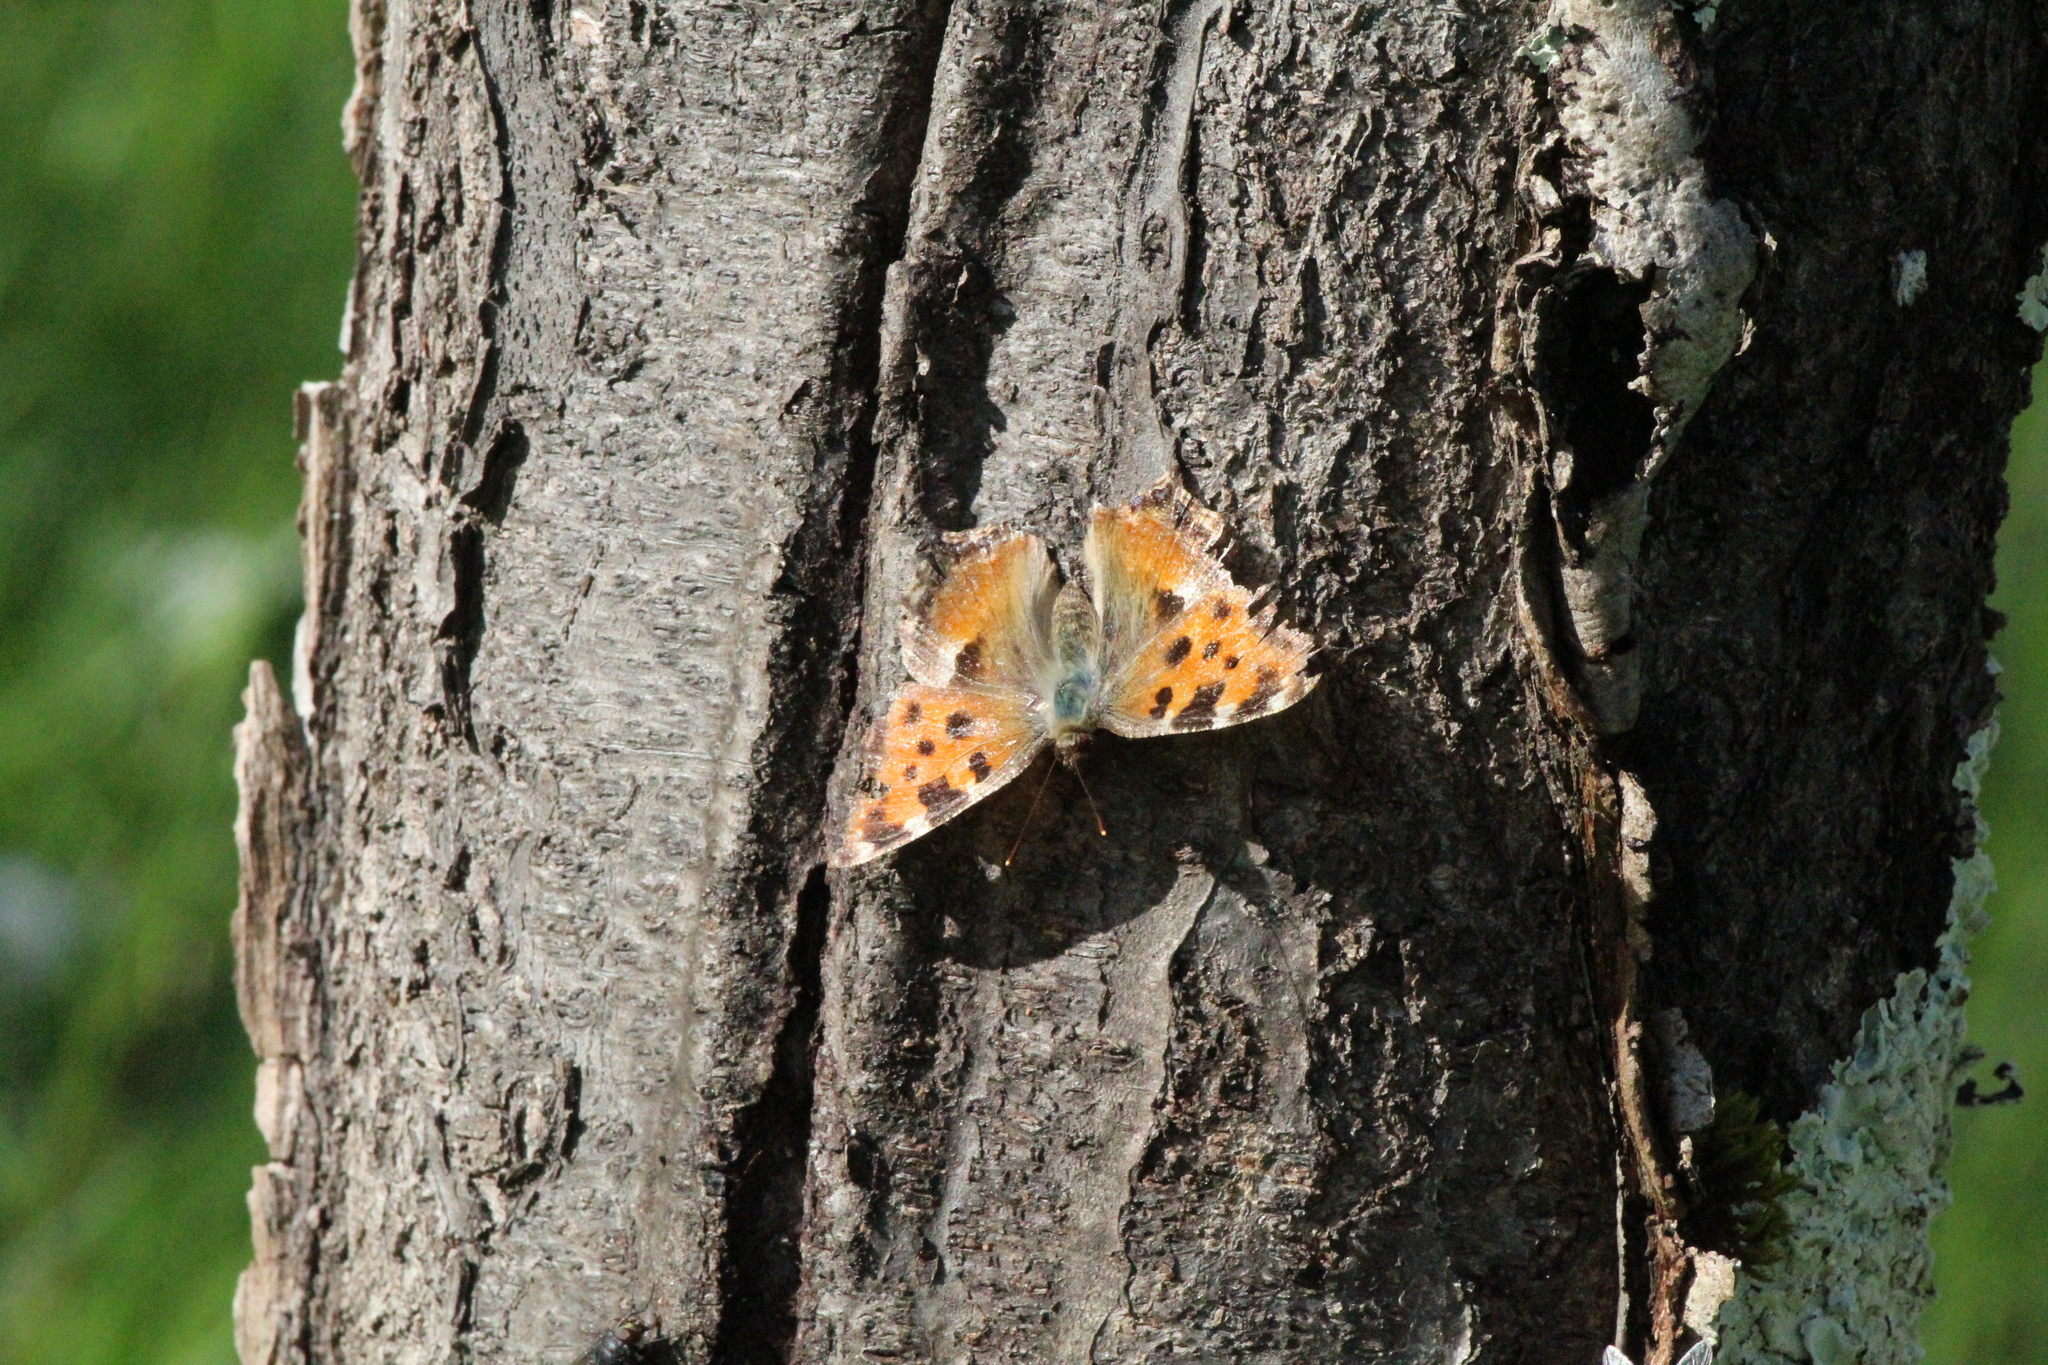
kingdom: Animalia
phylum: Arthropoda
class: Insecta
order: Lepidoptera
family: Nymphalidae
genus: Nymphalis
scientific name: Nymphalis polychloros
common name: Large tortoiseshell
